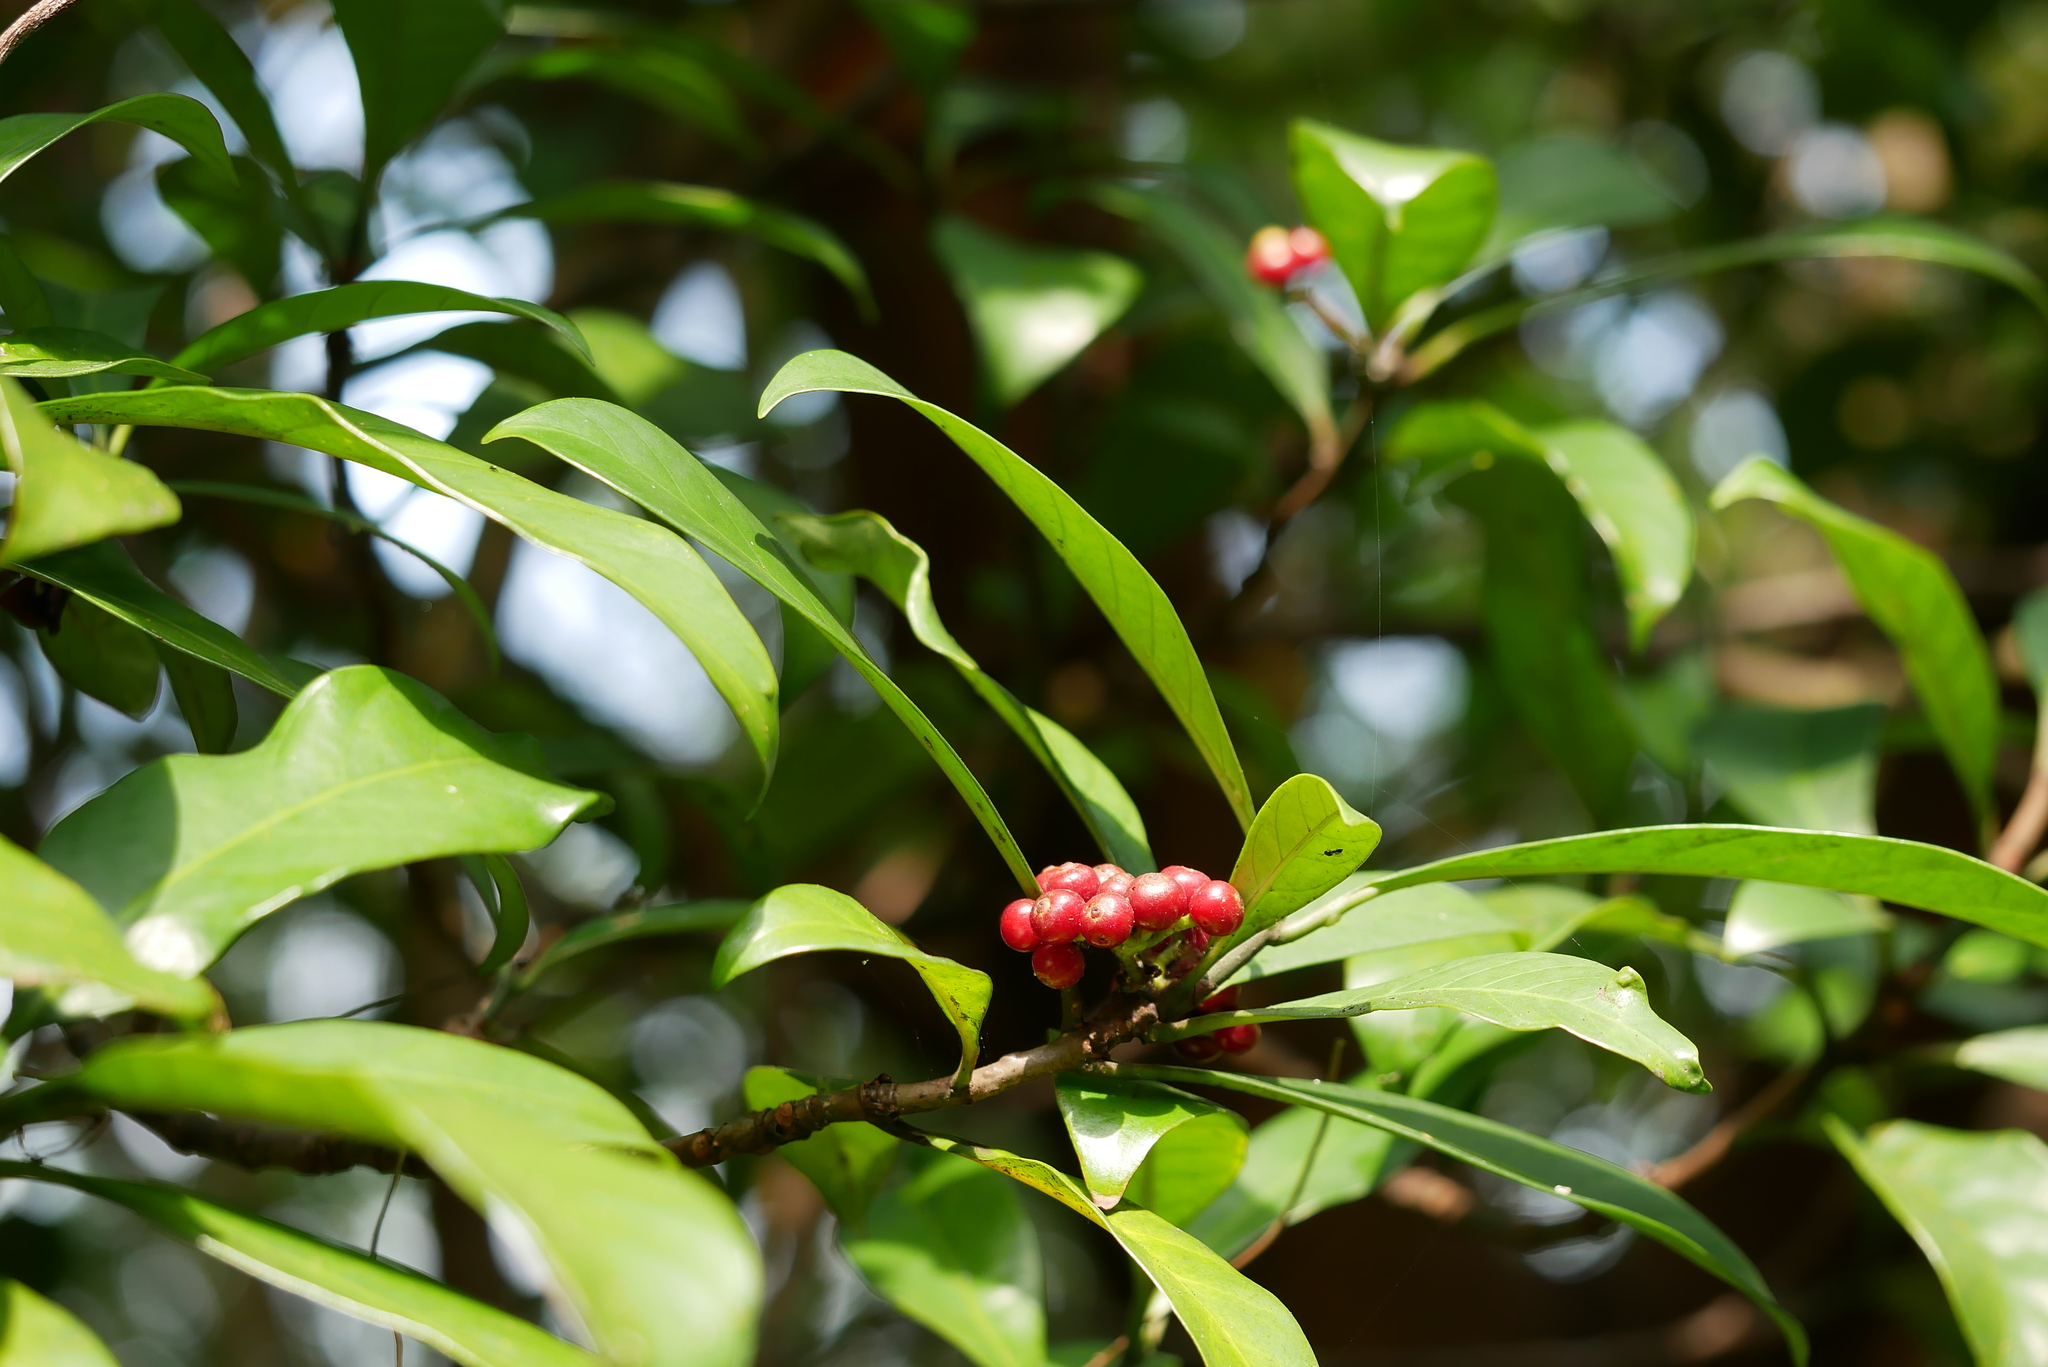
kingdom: Plantae
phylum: Tracheophyta
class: Magnoliopsida
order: Gentianales
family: Rubiaceae
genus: Psychotria
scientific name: Psychotria asiatica
